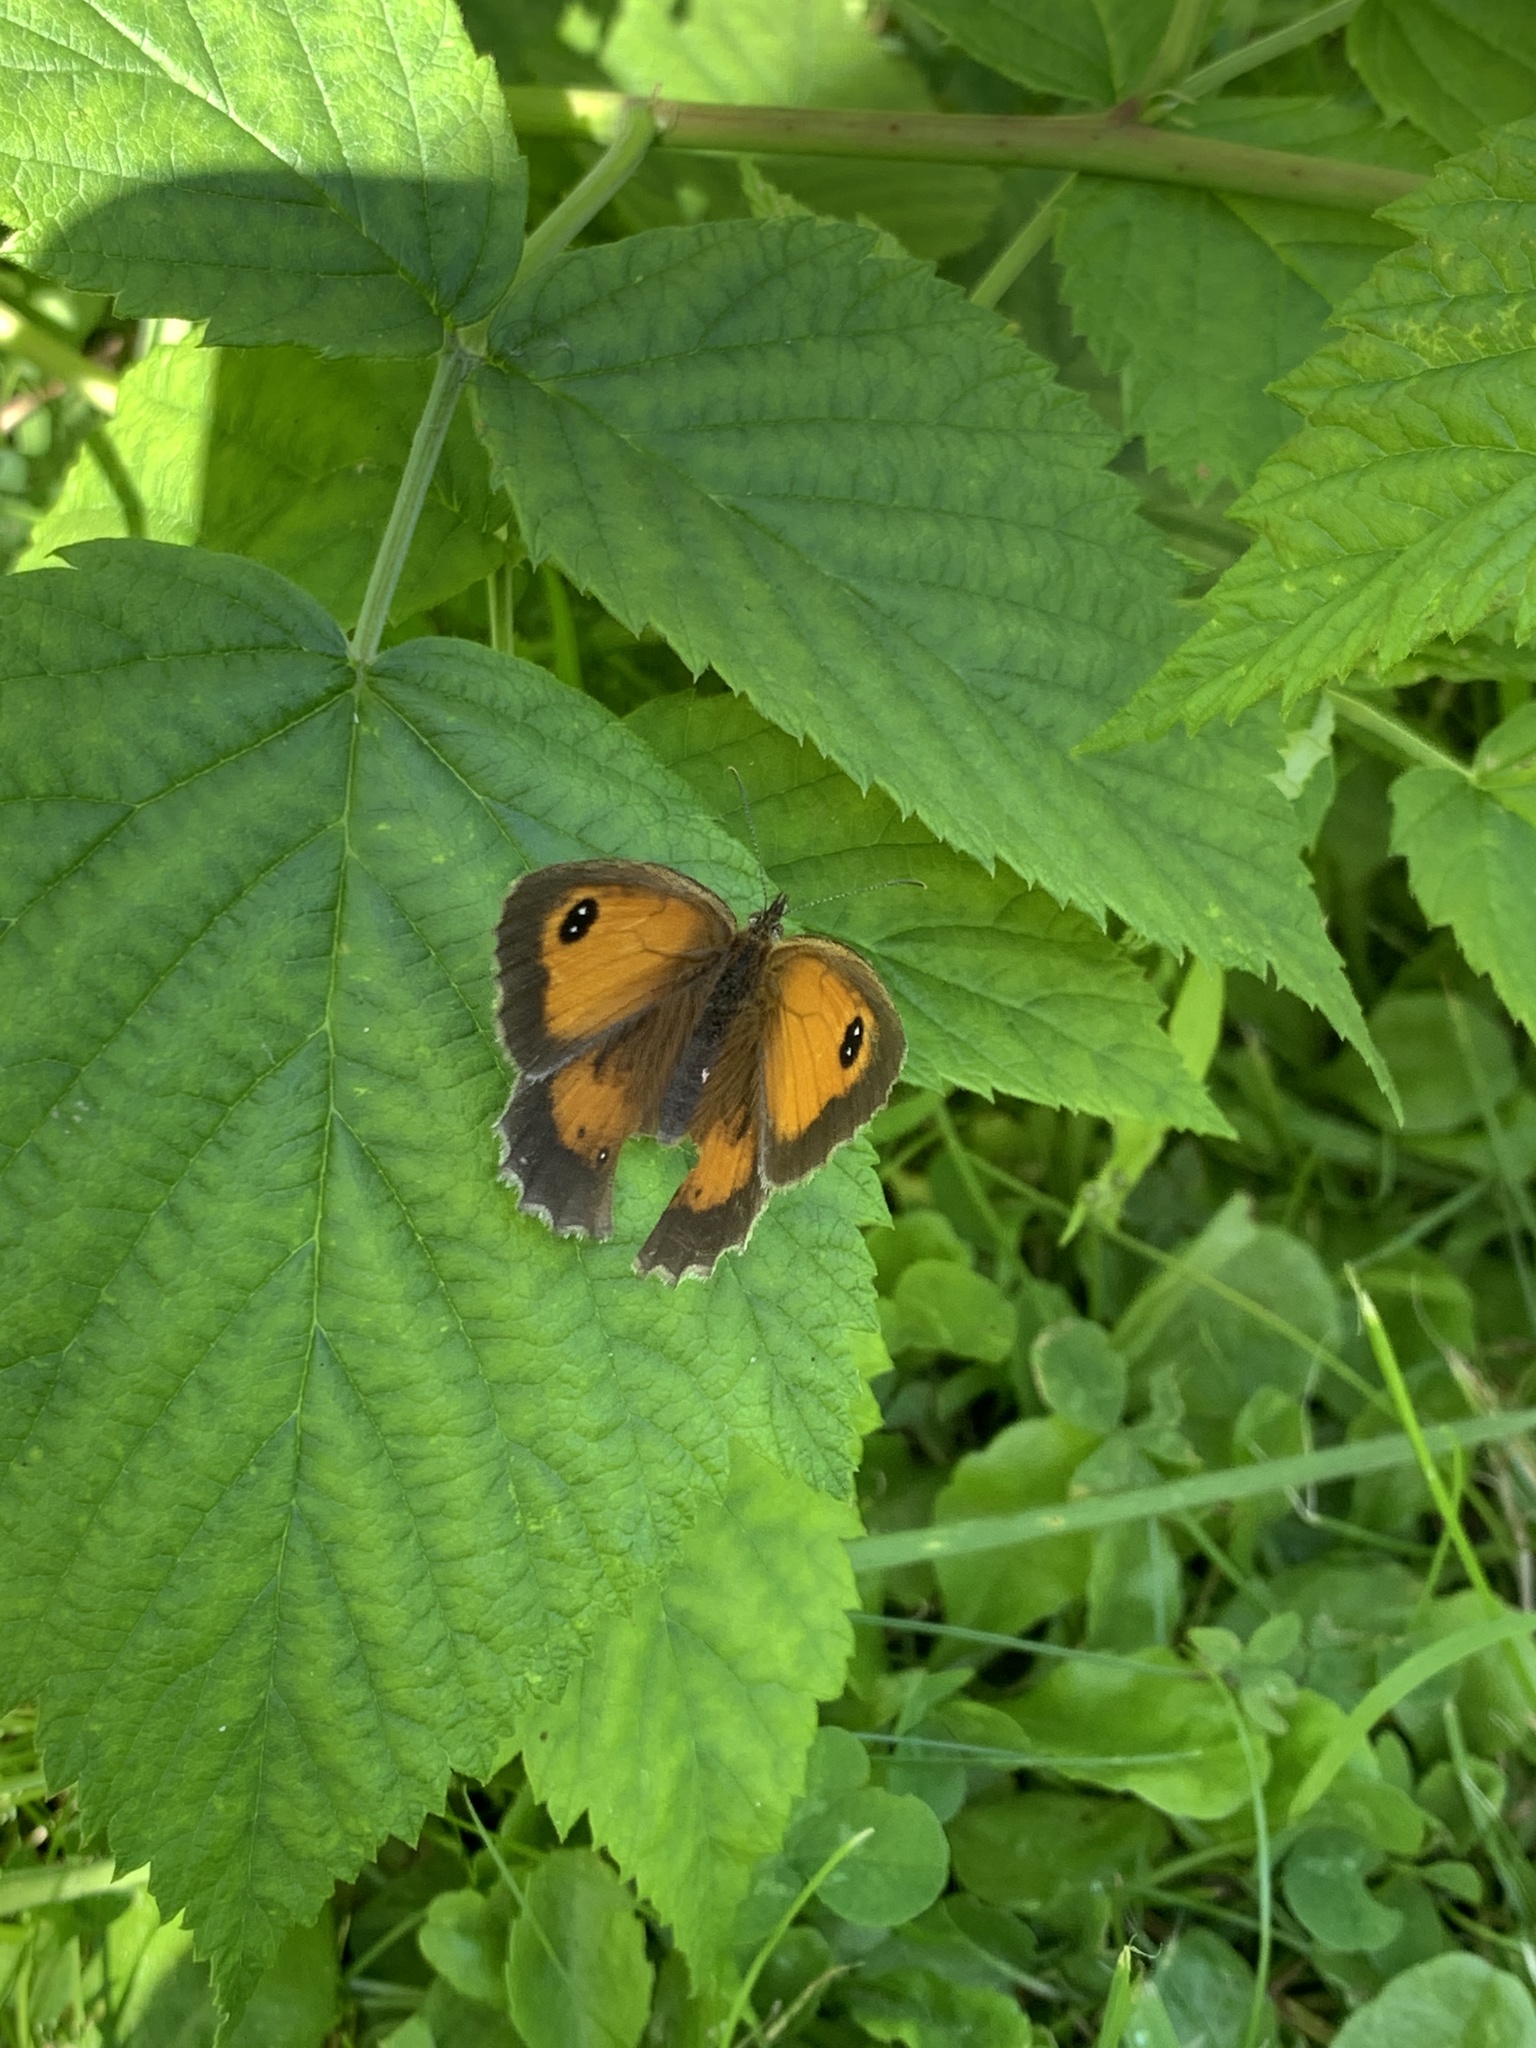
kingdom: Animalia
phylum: Arthropoda
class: Insecta
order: Lepidoptera
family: Nymphalidae
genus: Pyronia
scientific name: Pyronia tithonus
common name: Gatekeeper
